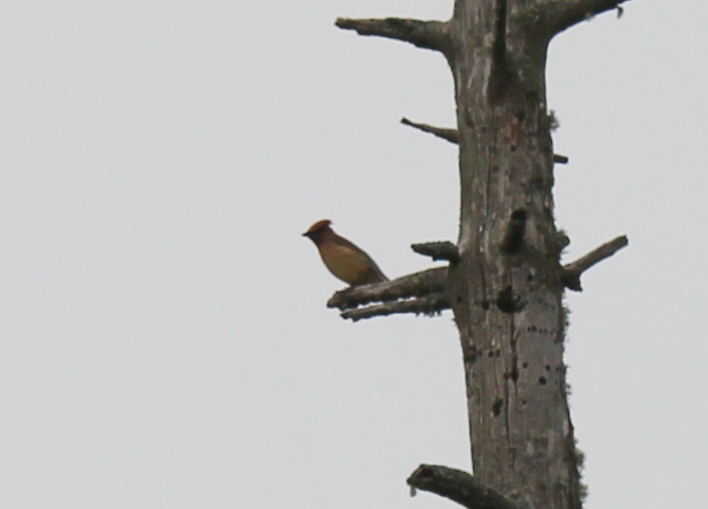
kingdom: Animalia
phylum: Chordata
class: Aves
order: Passeriformes
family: Bombycillidae
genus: Bombycilla
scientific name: Bombycilla cedrorum
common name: Cedar waxwing
